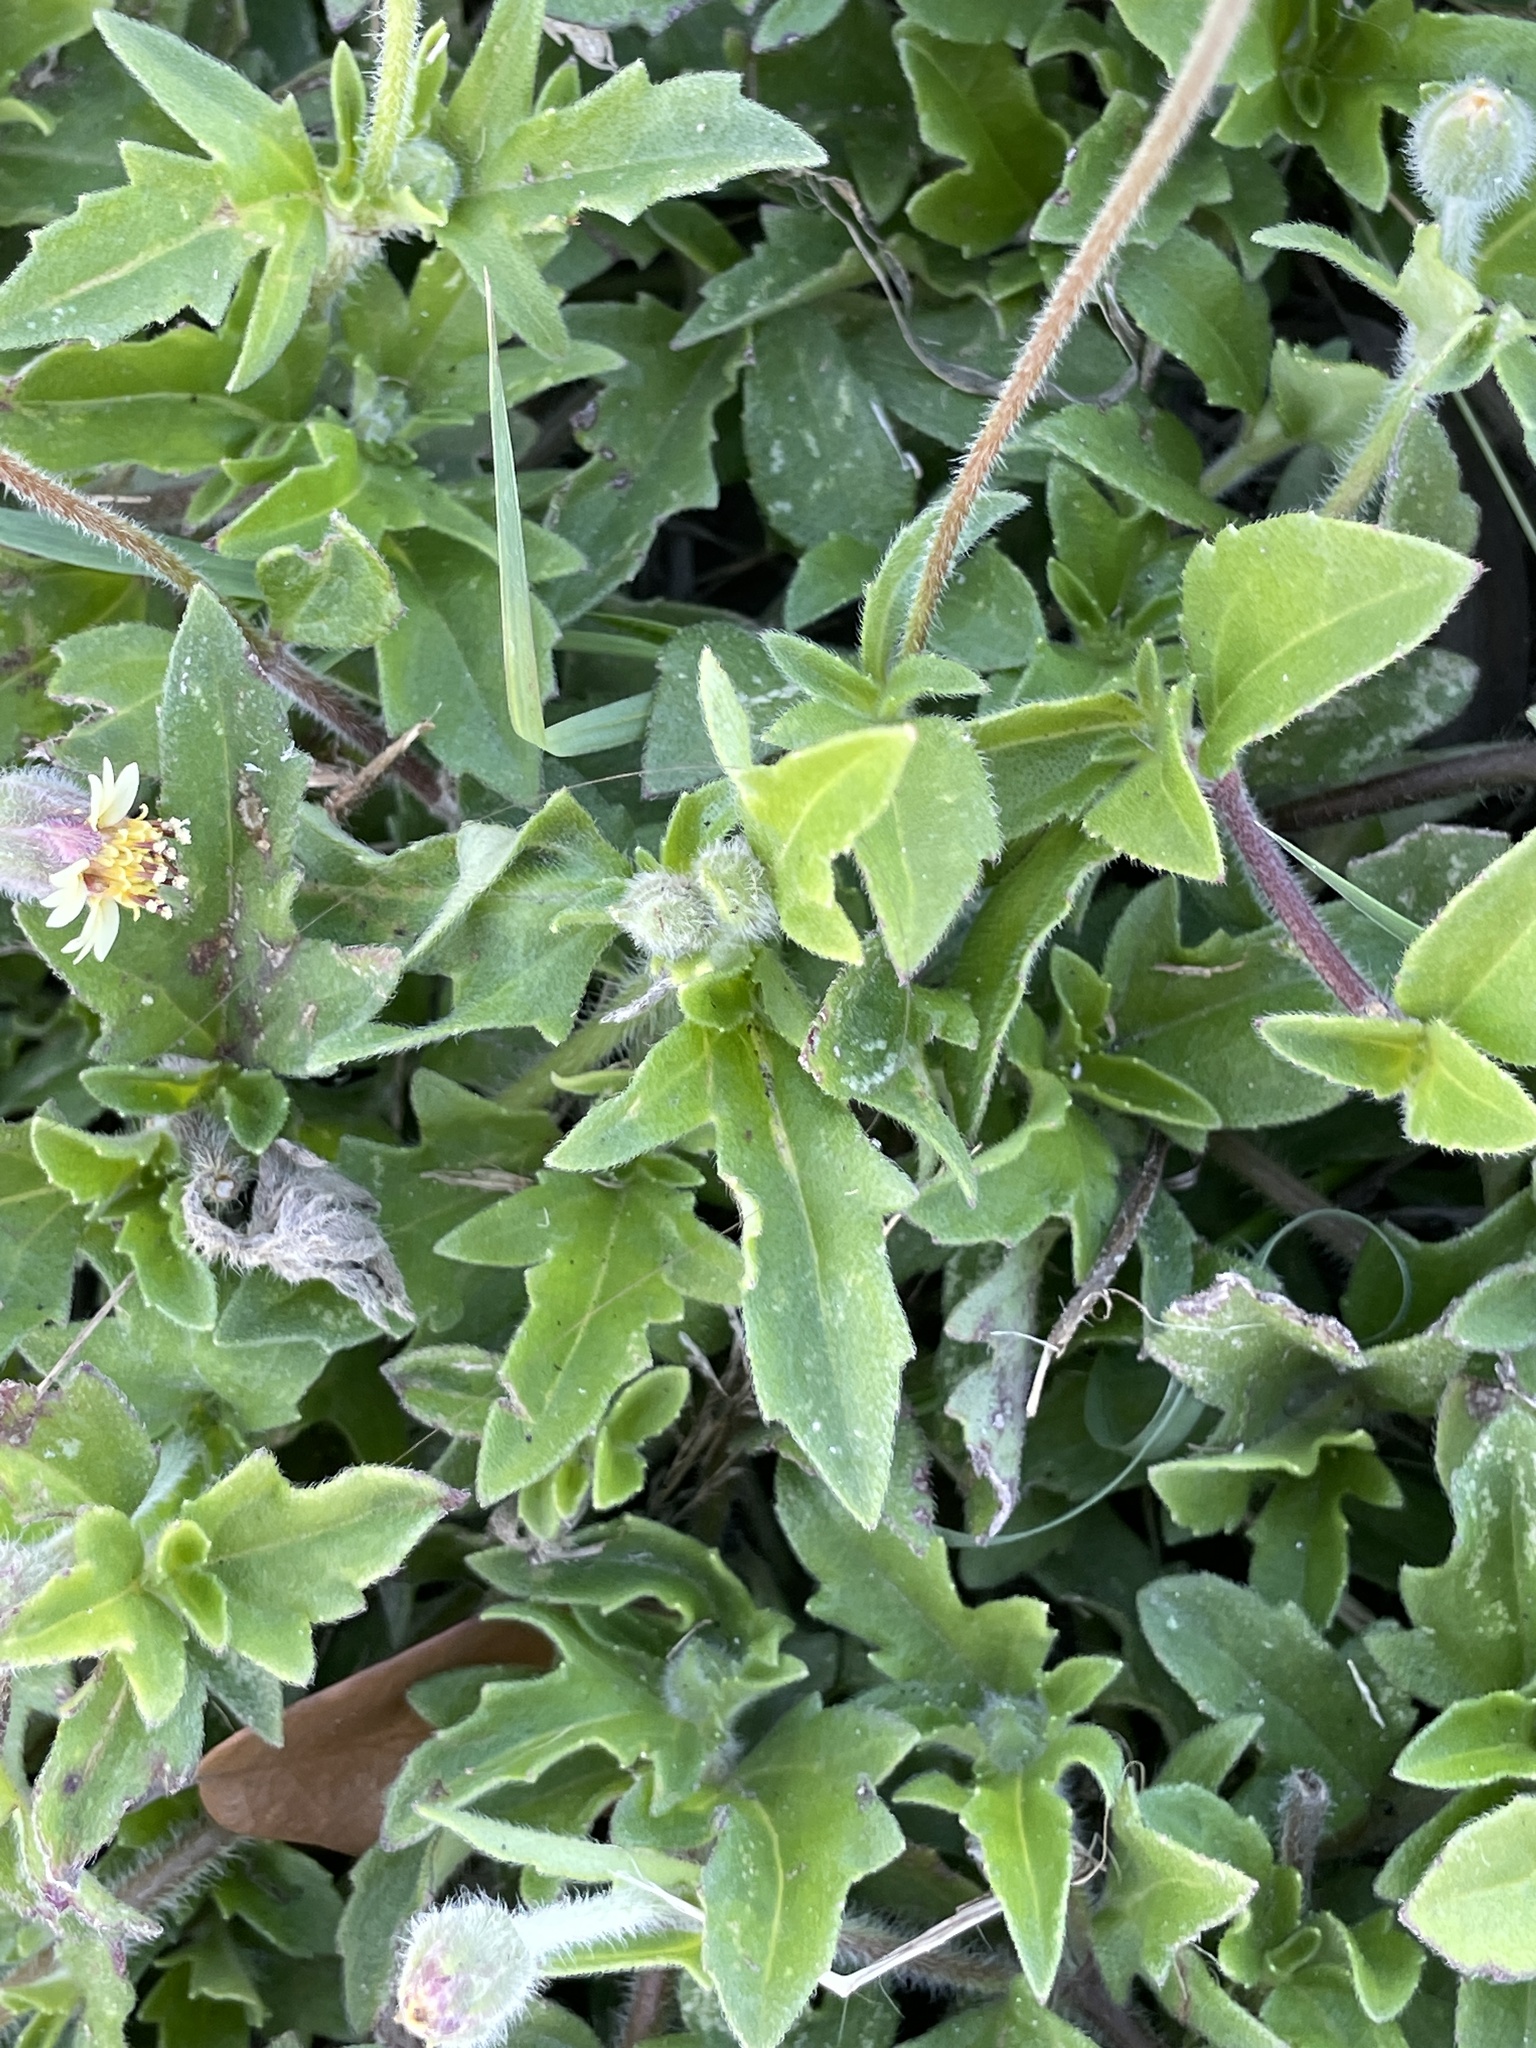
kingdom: Plantae
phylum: Tracheophyta
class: Magnoliopsida
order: Asterales
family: Asteraceae
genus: Tridax
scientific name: Tridax procumbens
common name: Coatbuttons
